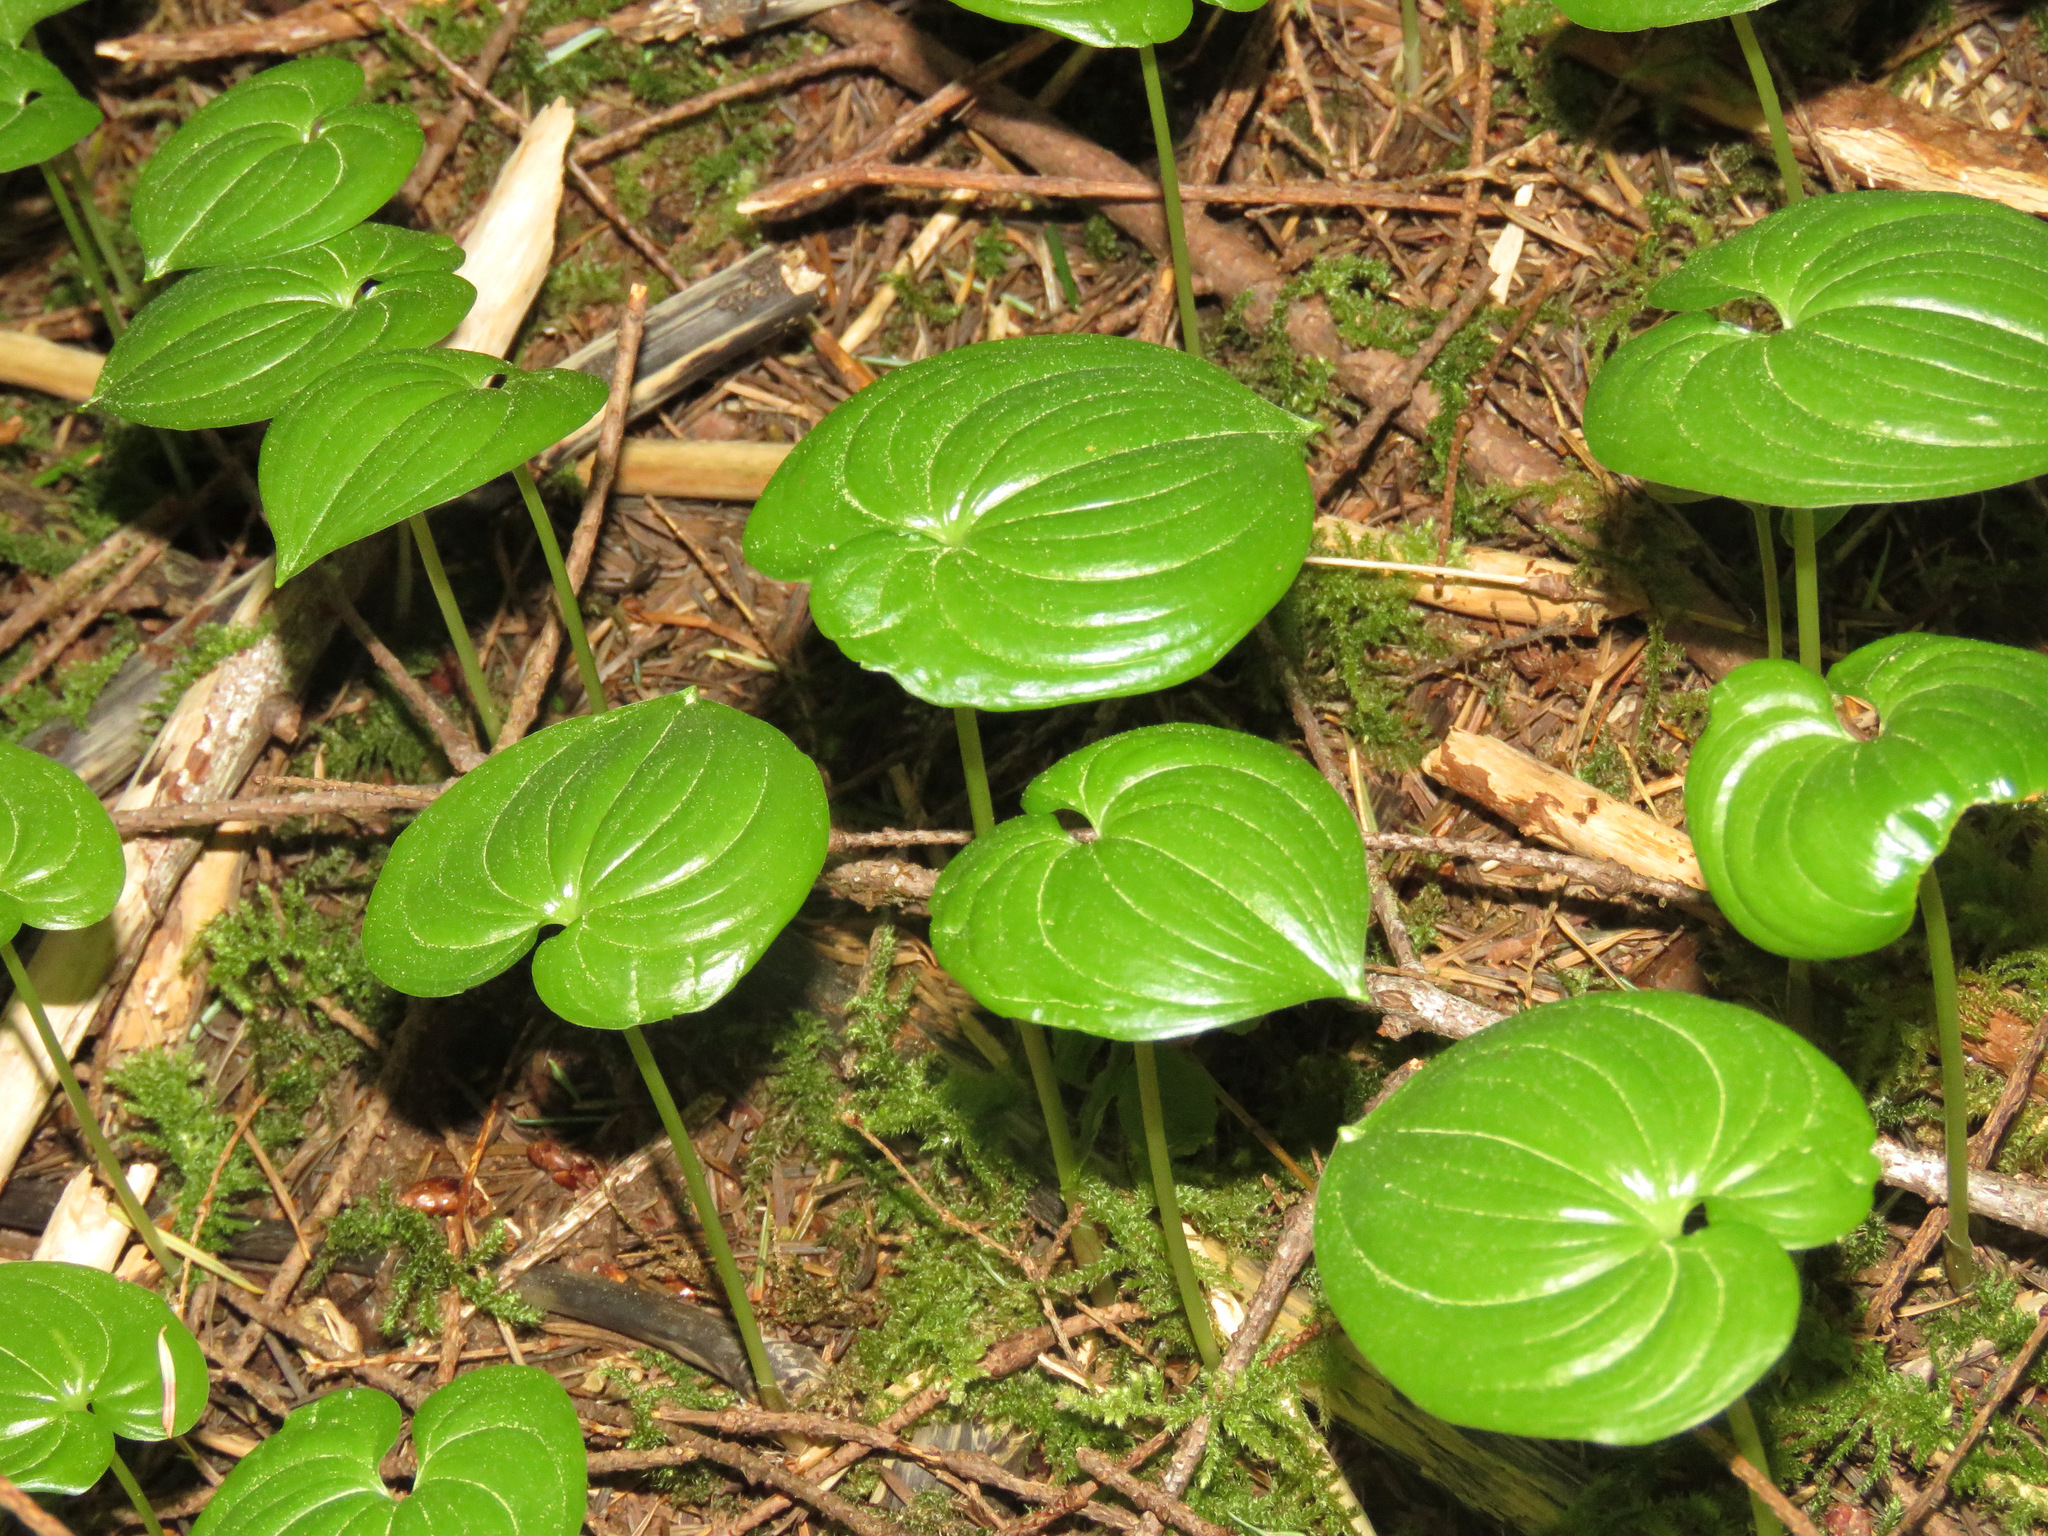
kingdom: Plantae
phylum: Tracheophyta
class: Liliopsida
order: Asparagales
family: Asparagaceae
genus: Maianthemum
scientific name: Maianthemum dilatatum
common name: False lily-of-the-valley
